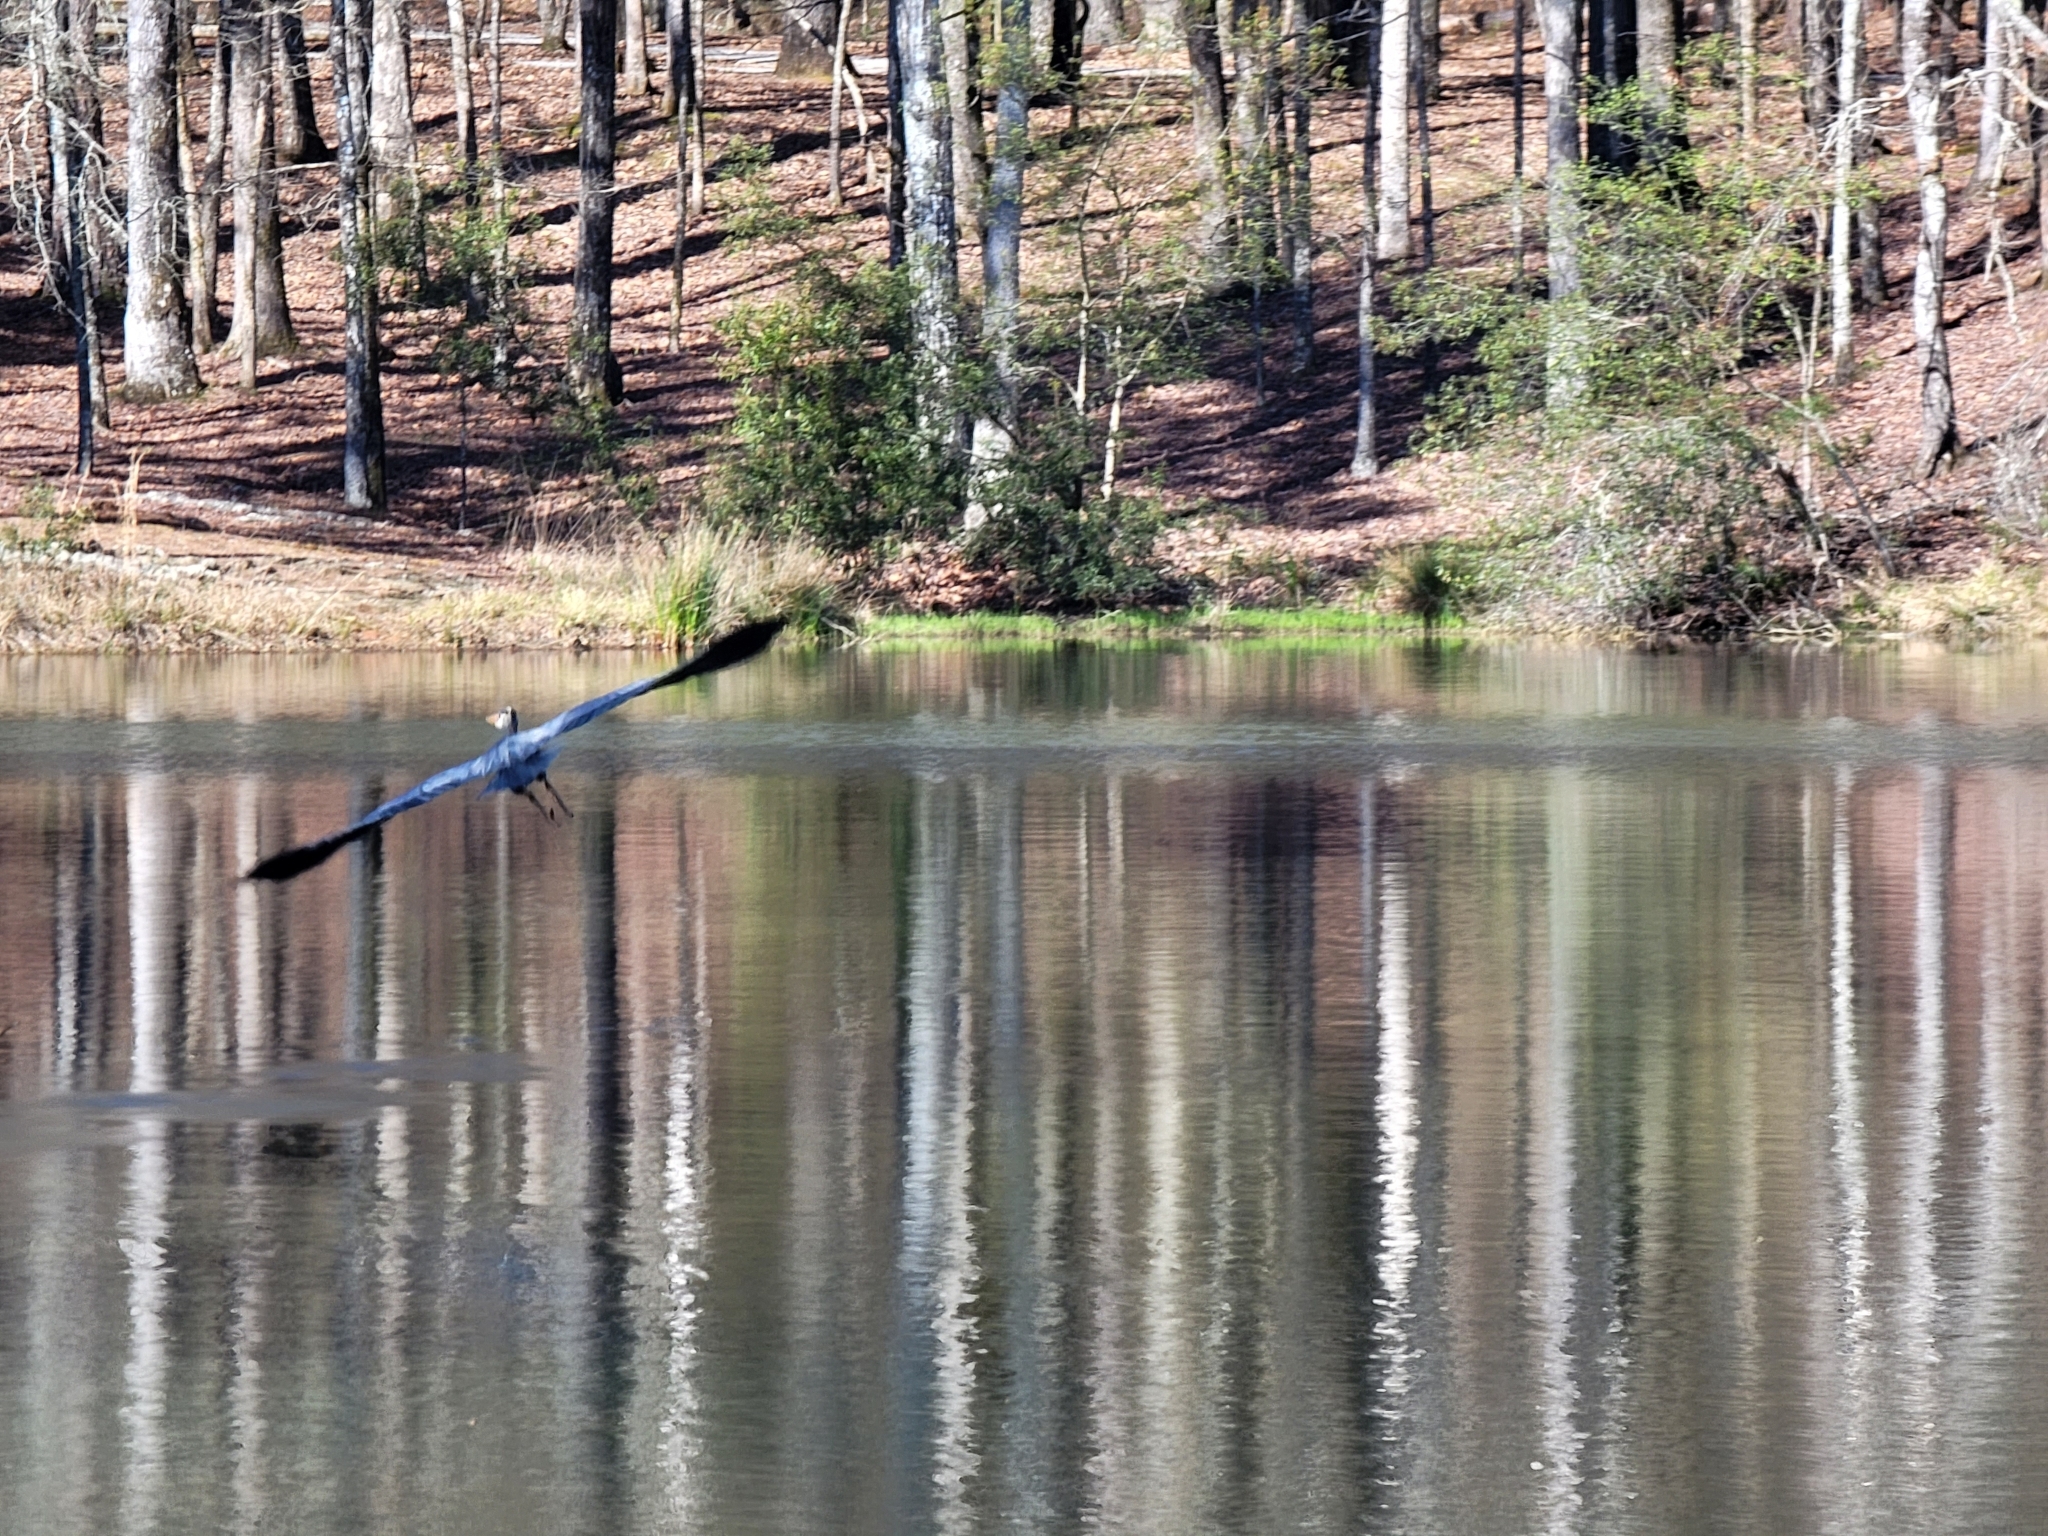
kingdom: Animalia
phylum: Chordata
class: Aves
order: Pelecaniformes
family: Ardeidae
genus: Ardea
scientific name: Ardea herodias
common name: Great blue heron
